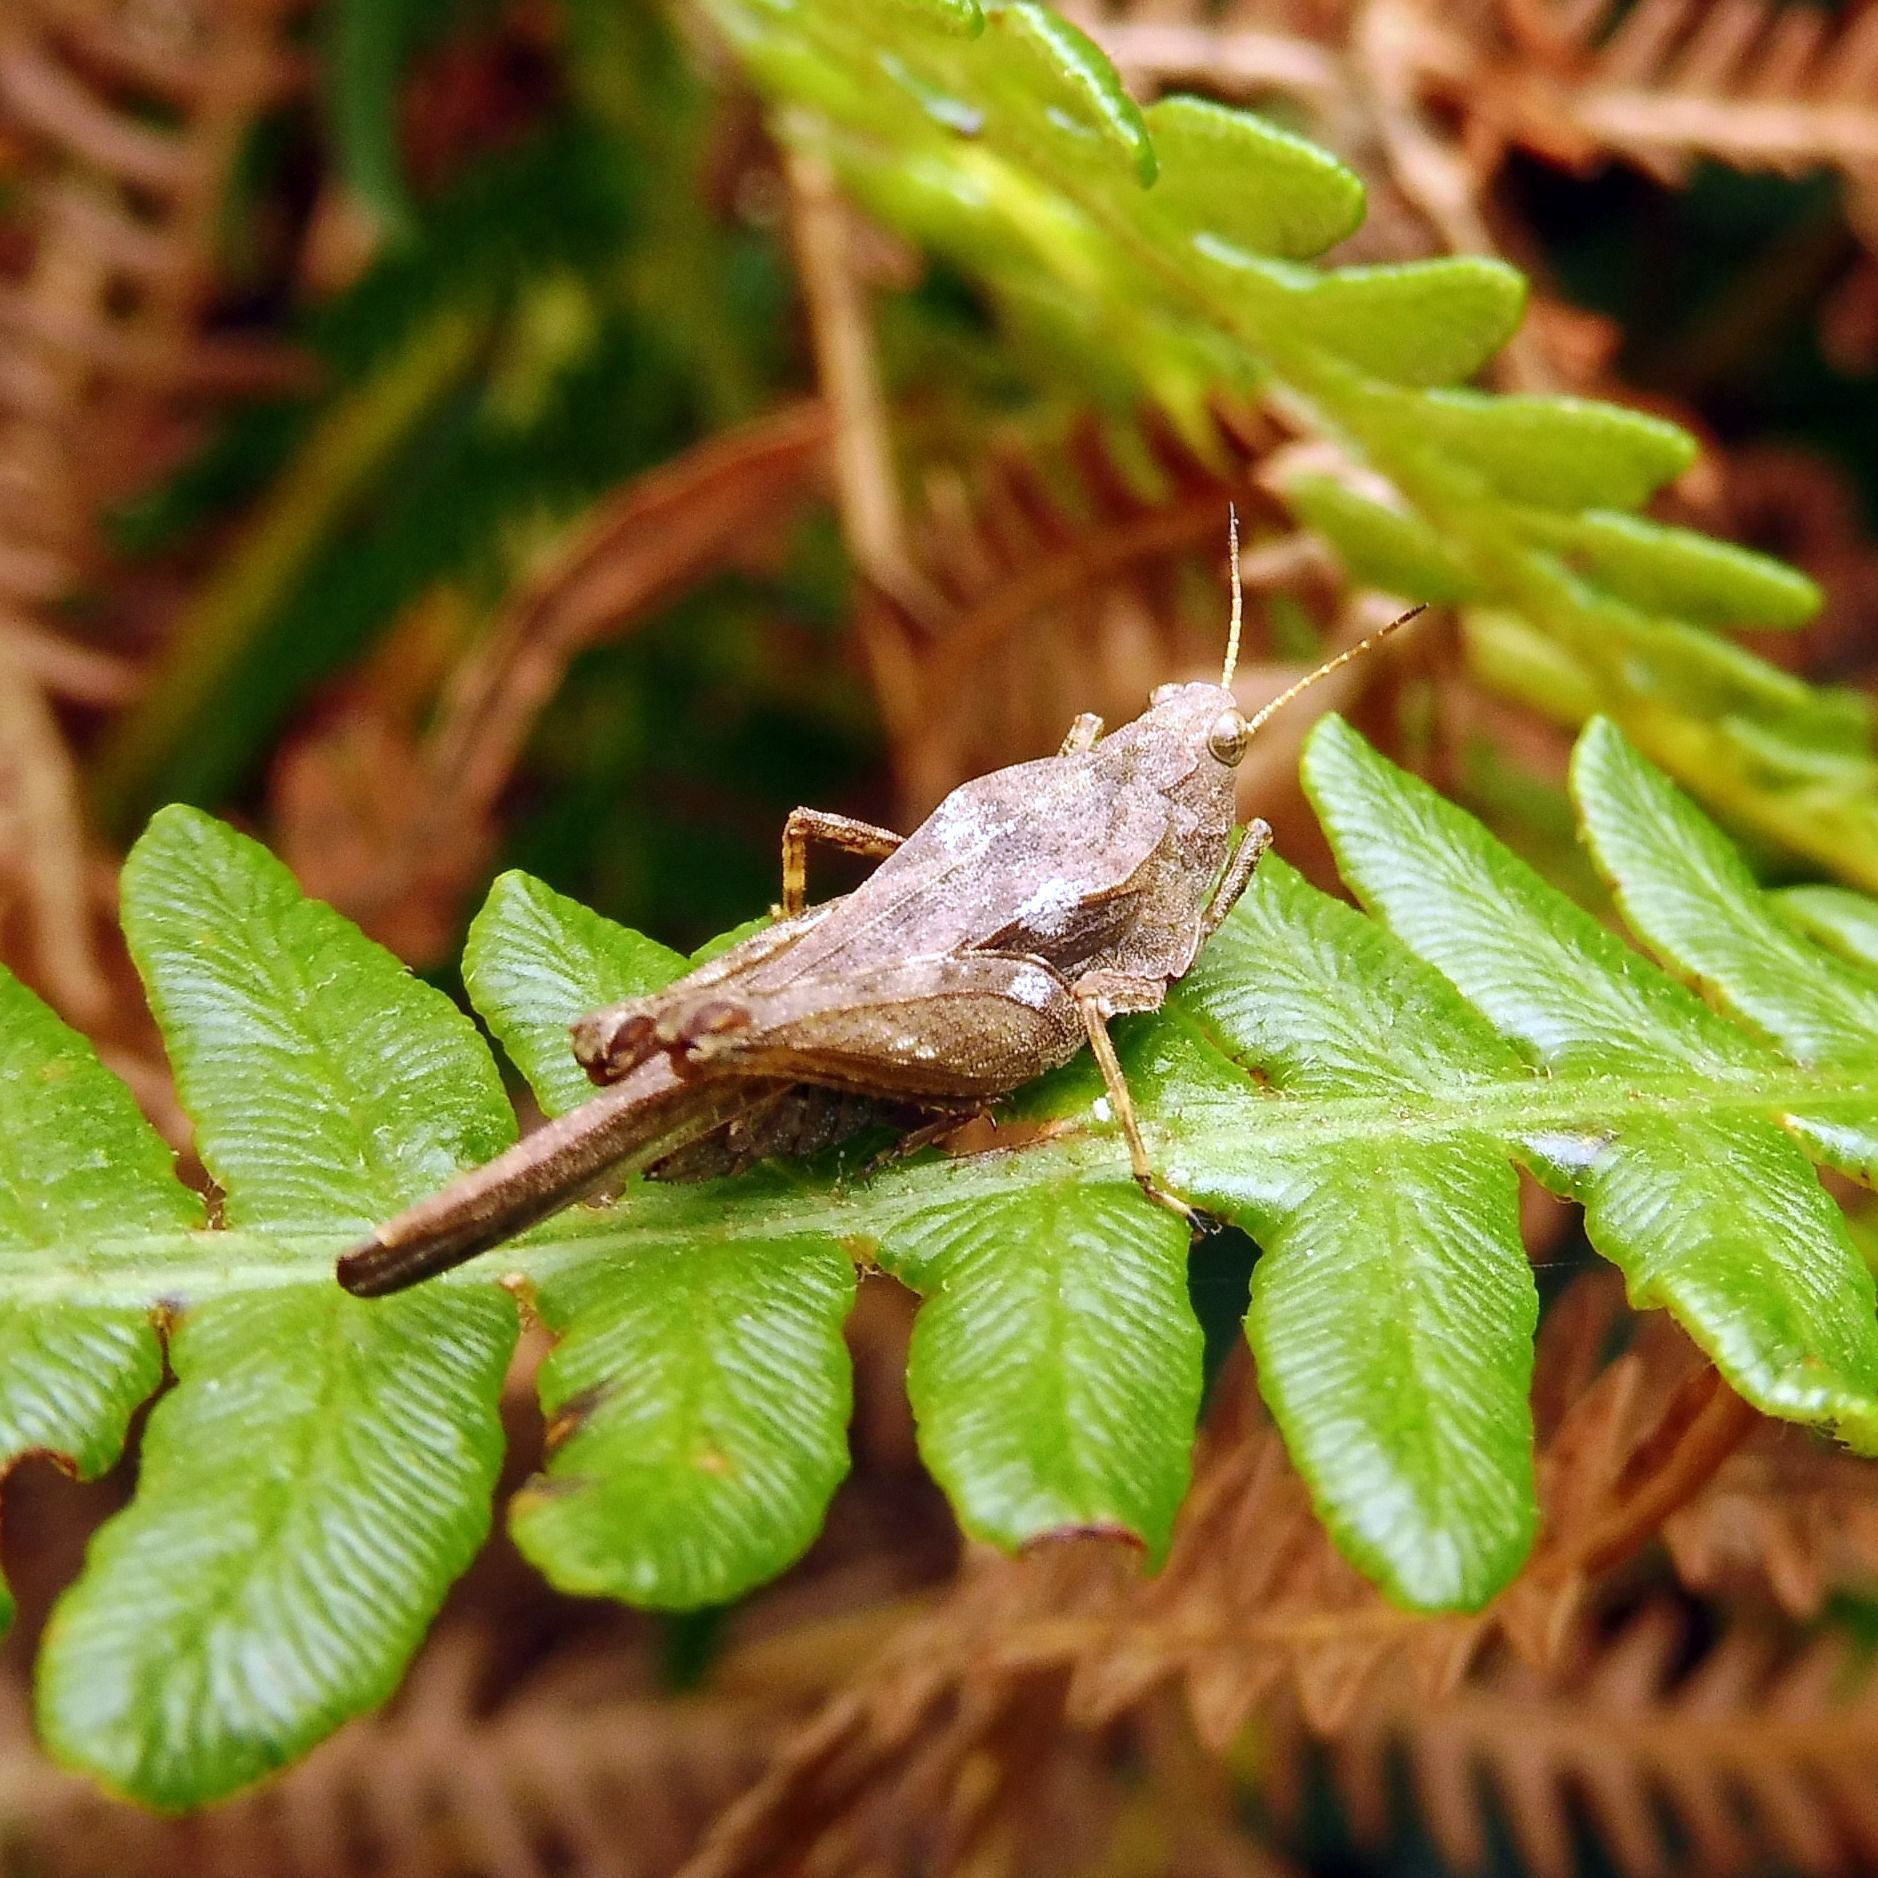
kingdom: Animalia
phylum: Arthropoda
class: Insecta
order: Orthoptera
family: Tetrigidae
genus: Tetrix
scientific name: Tetrix subulata
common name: Slender ground-hopper
